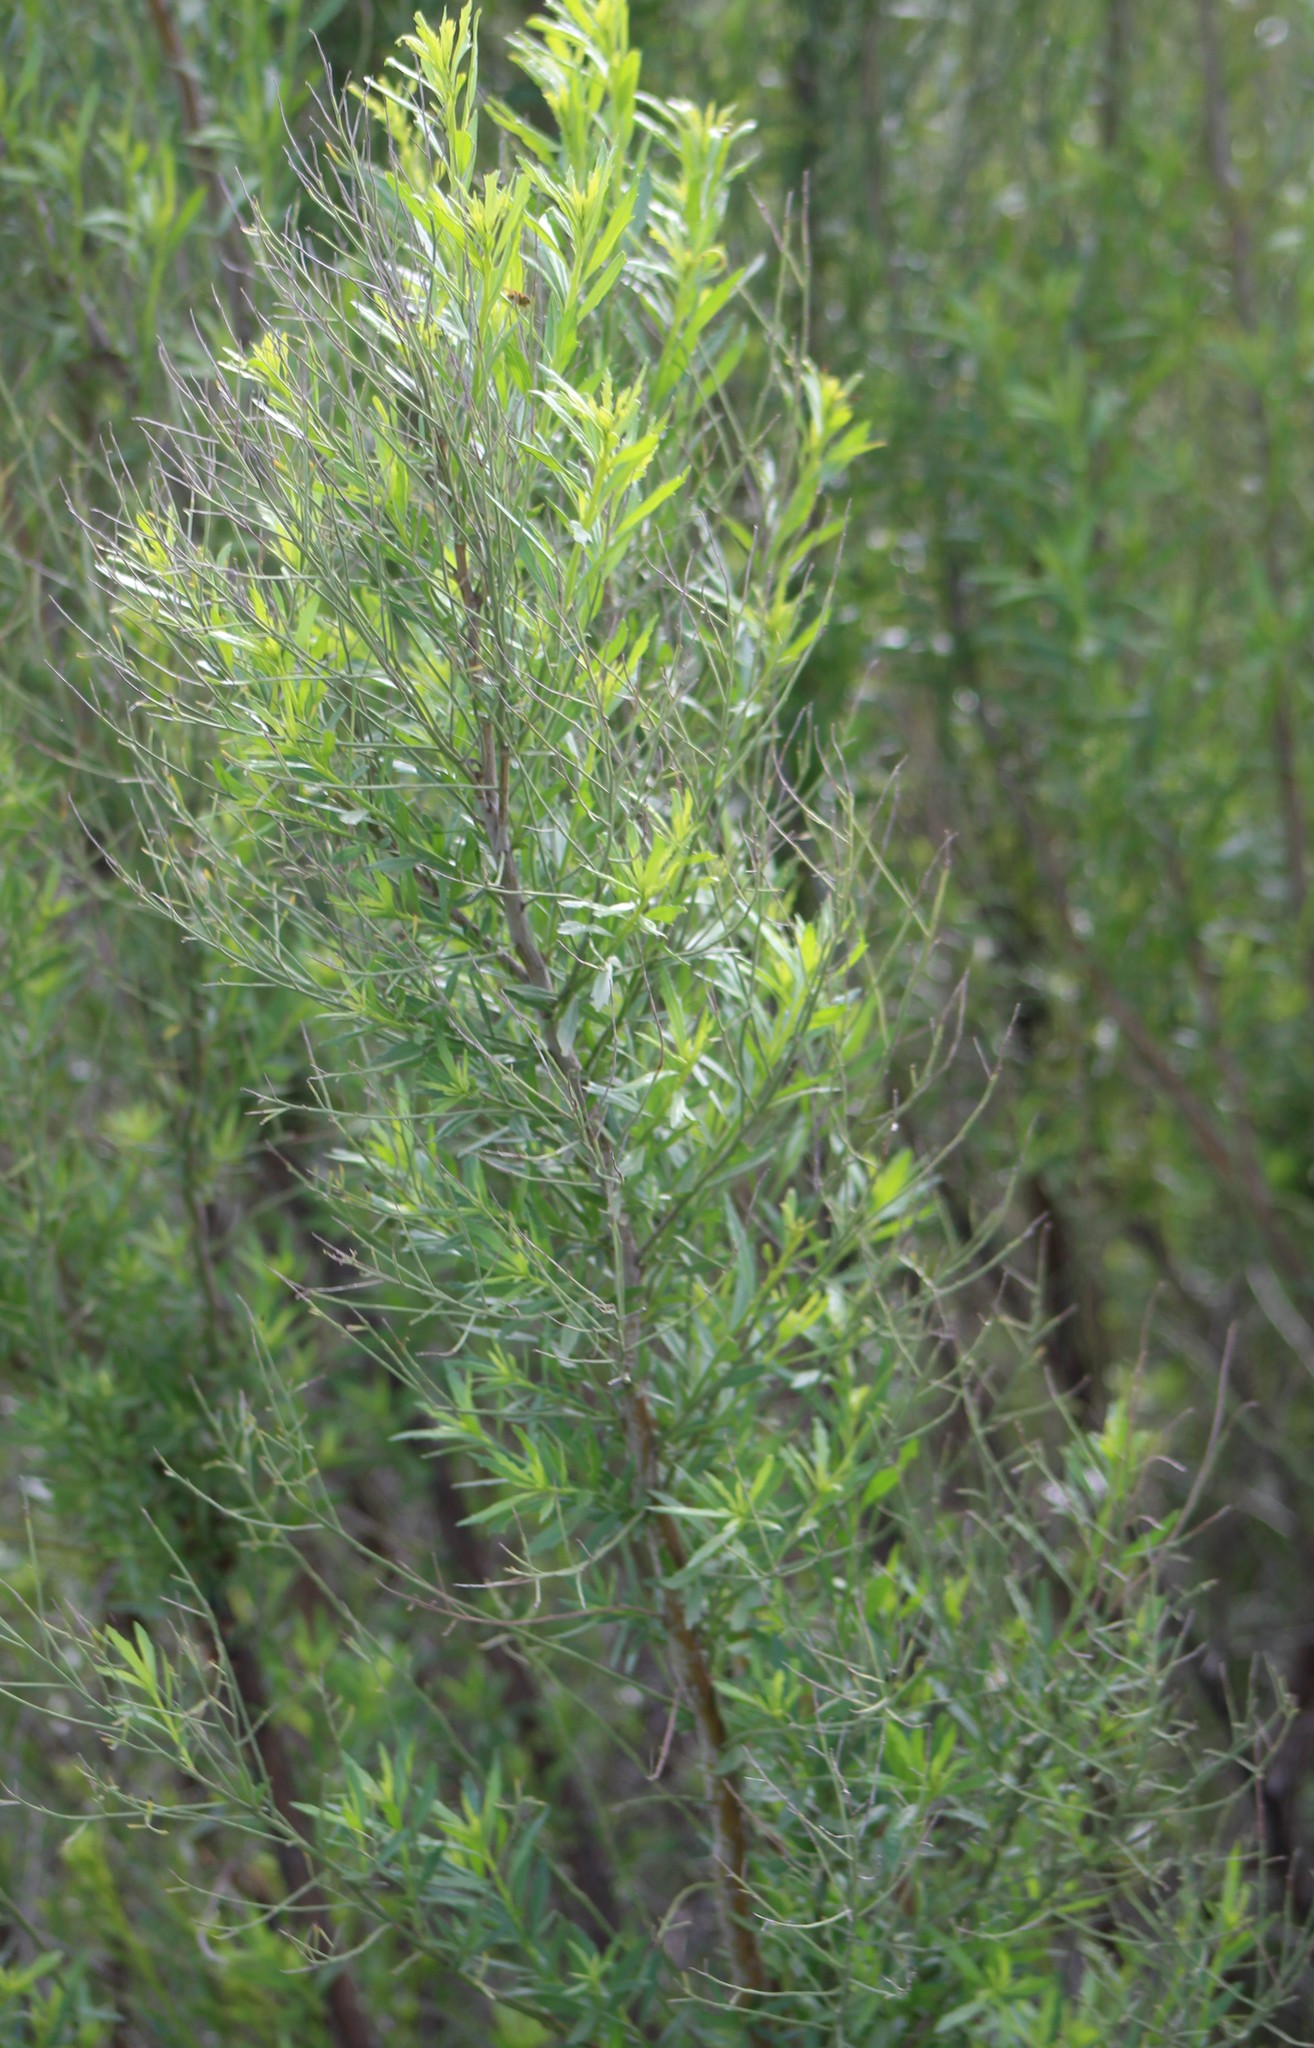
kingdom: Plantae
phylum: Tracheophyta
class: Magnoliopsida
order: Asterales
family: Asteraceae
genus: Baccharis
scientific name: Baccharis neglecta
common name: Roosevelt-weed
